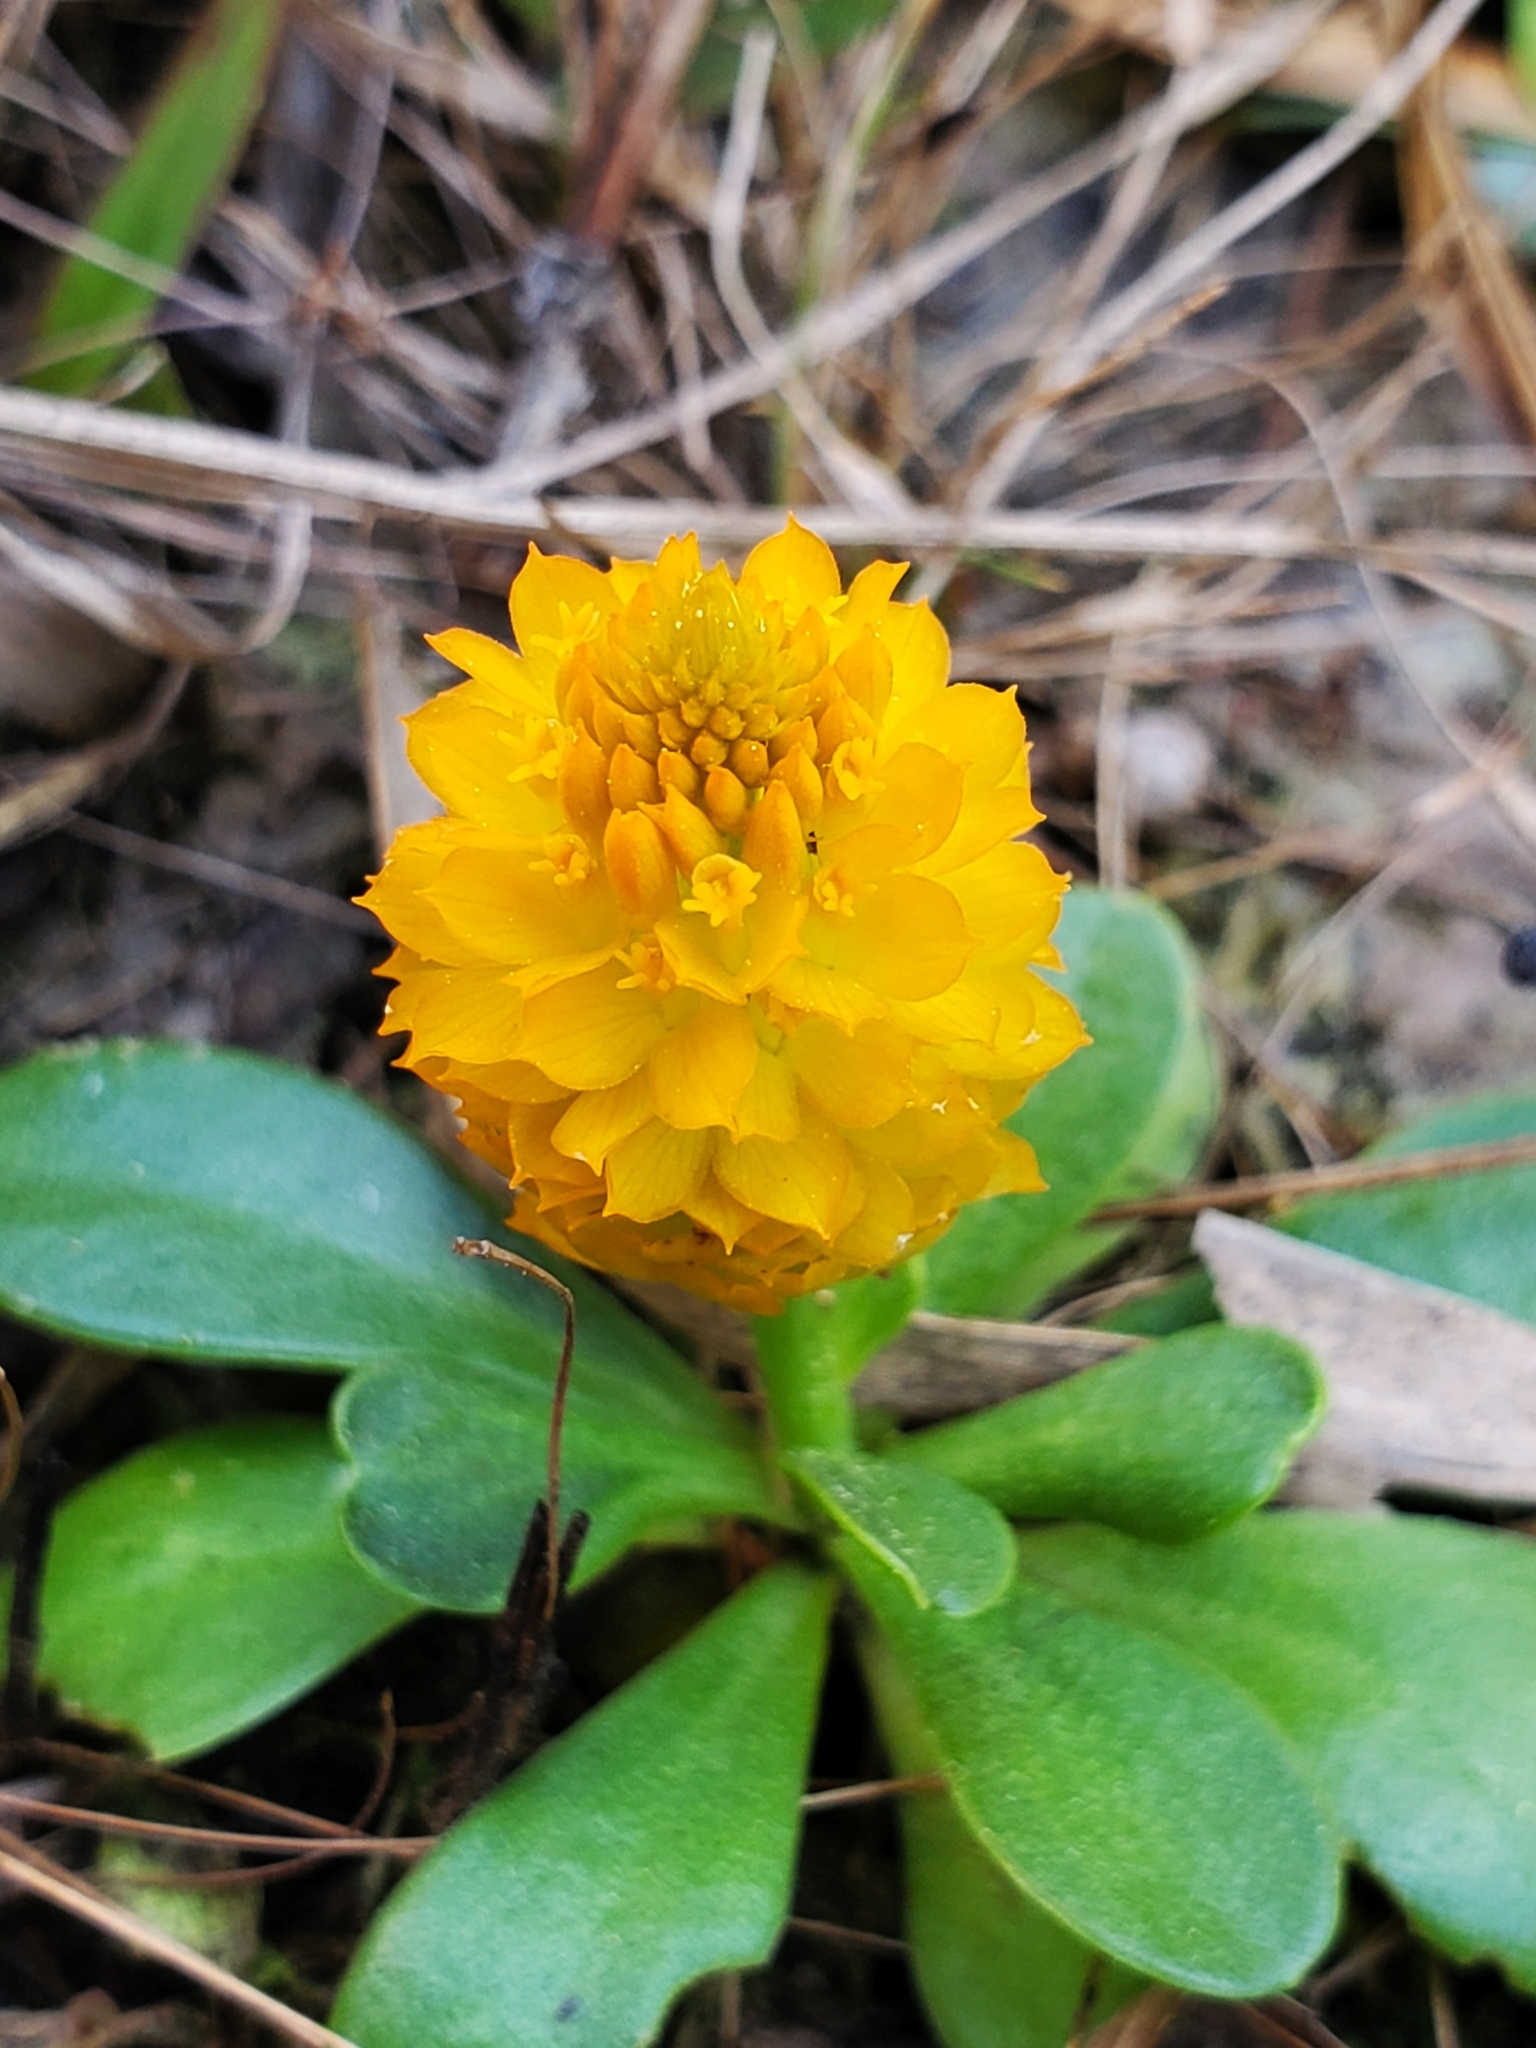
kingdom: Plantae
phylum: Tracheophyta
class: Magnoliopsida
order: Fabales
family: Polygalaceae
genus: Polygala
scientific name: Polygala lutea
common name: Orange milkwort
